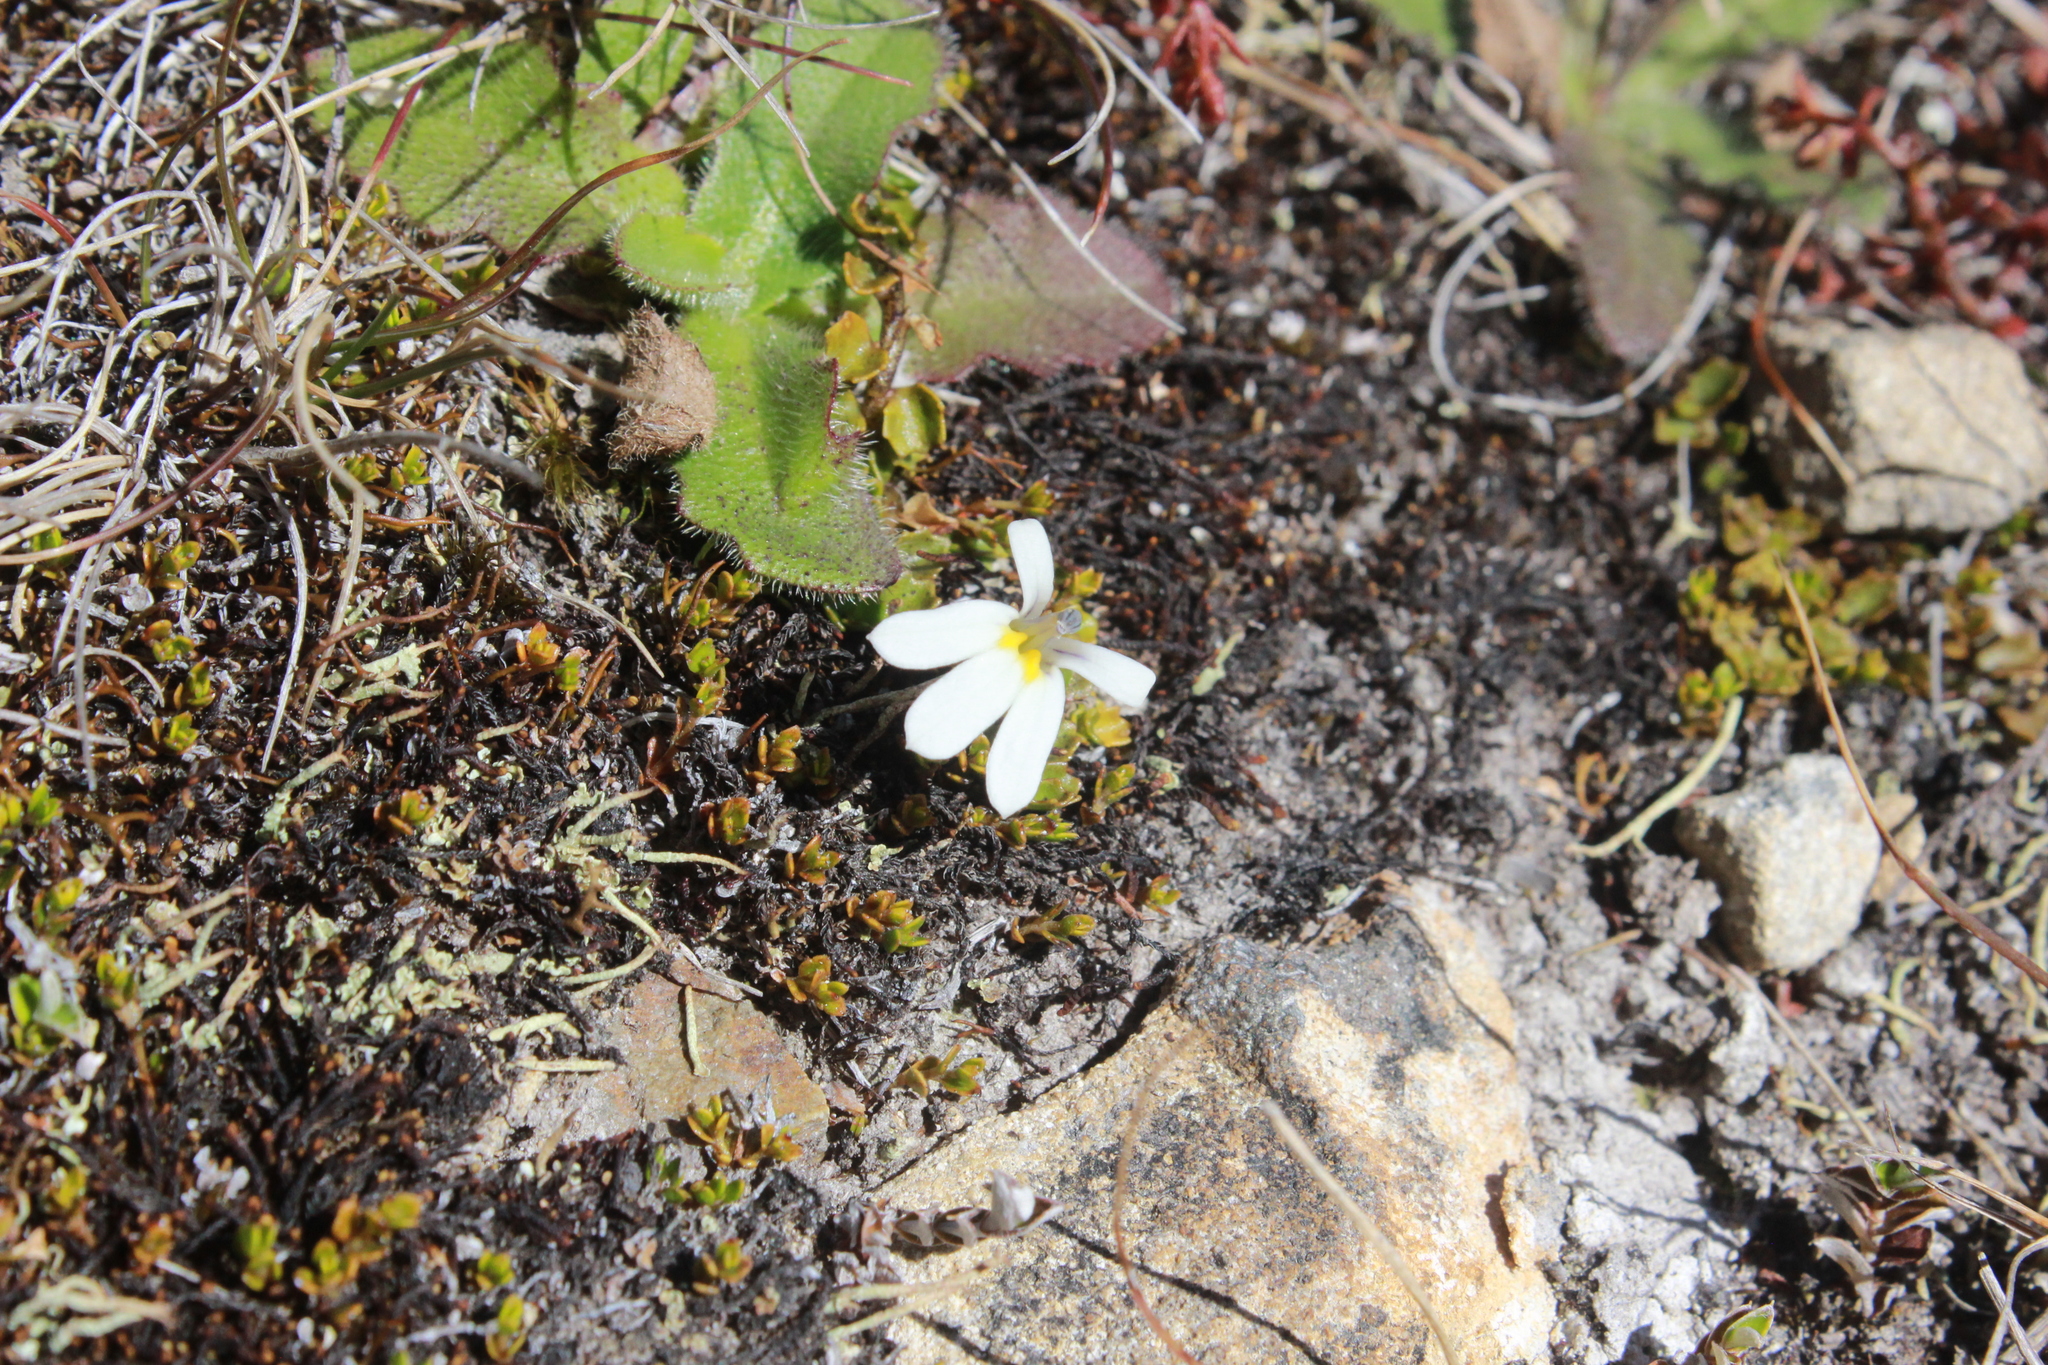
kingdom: Plantae
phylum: Tracheophyta
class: Magnoliopsida
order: Asterales
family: Campanulaceae
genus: Lobelia
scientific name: Lobelia angulata
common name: Lawn lobelia
